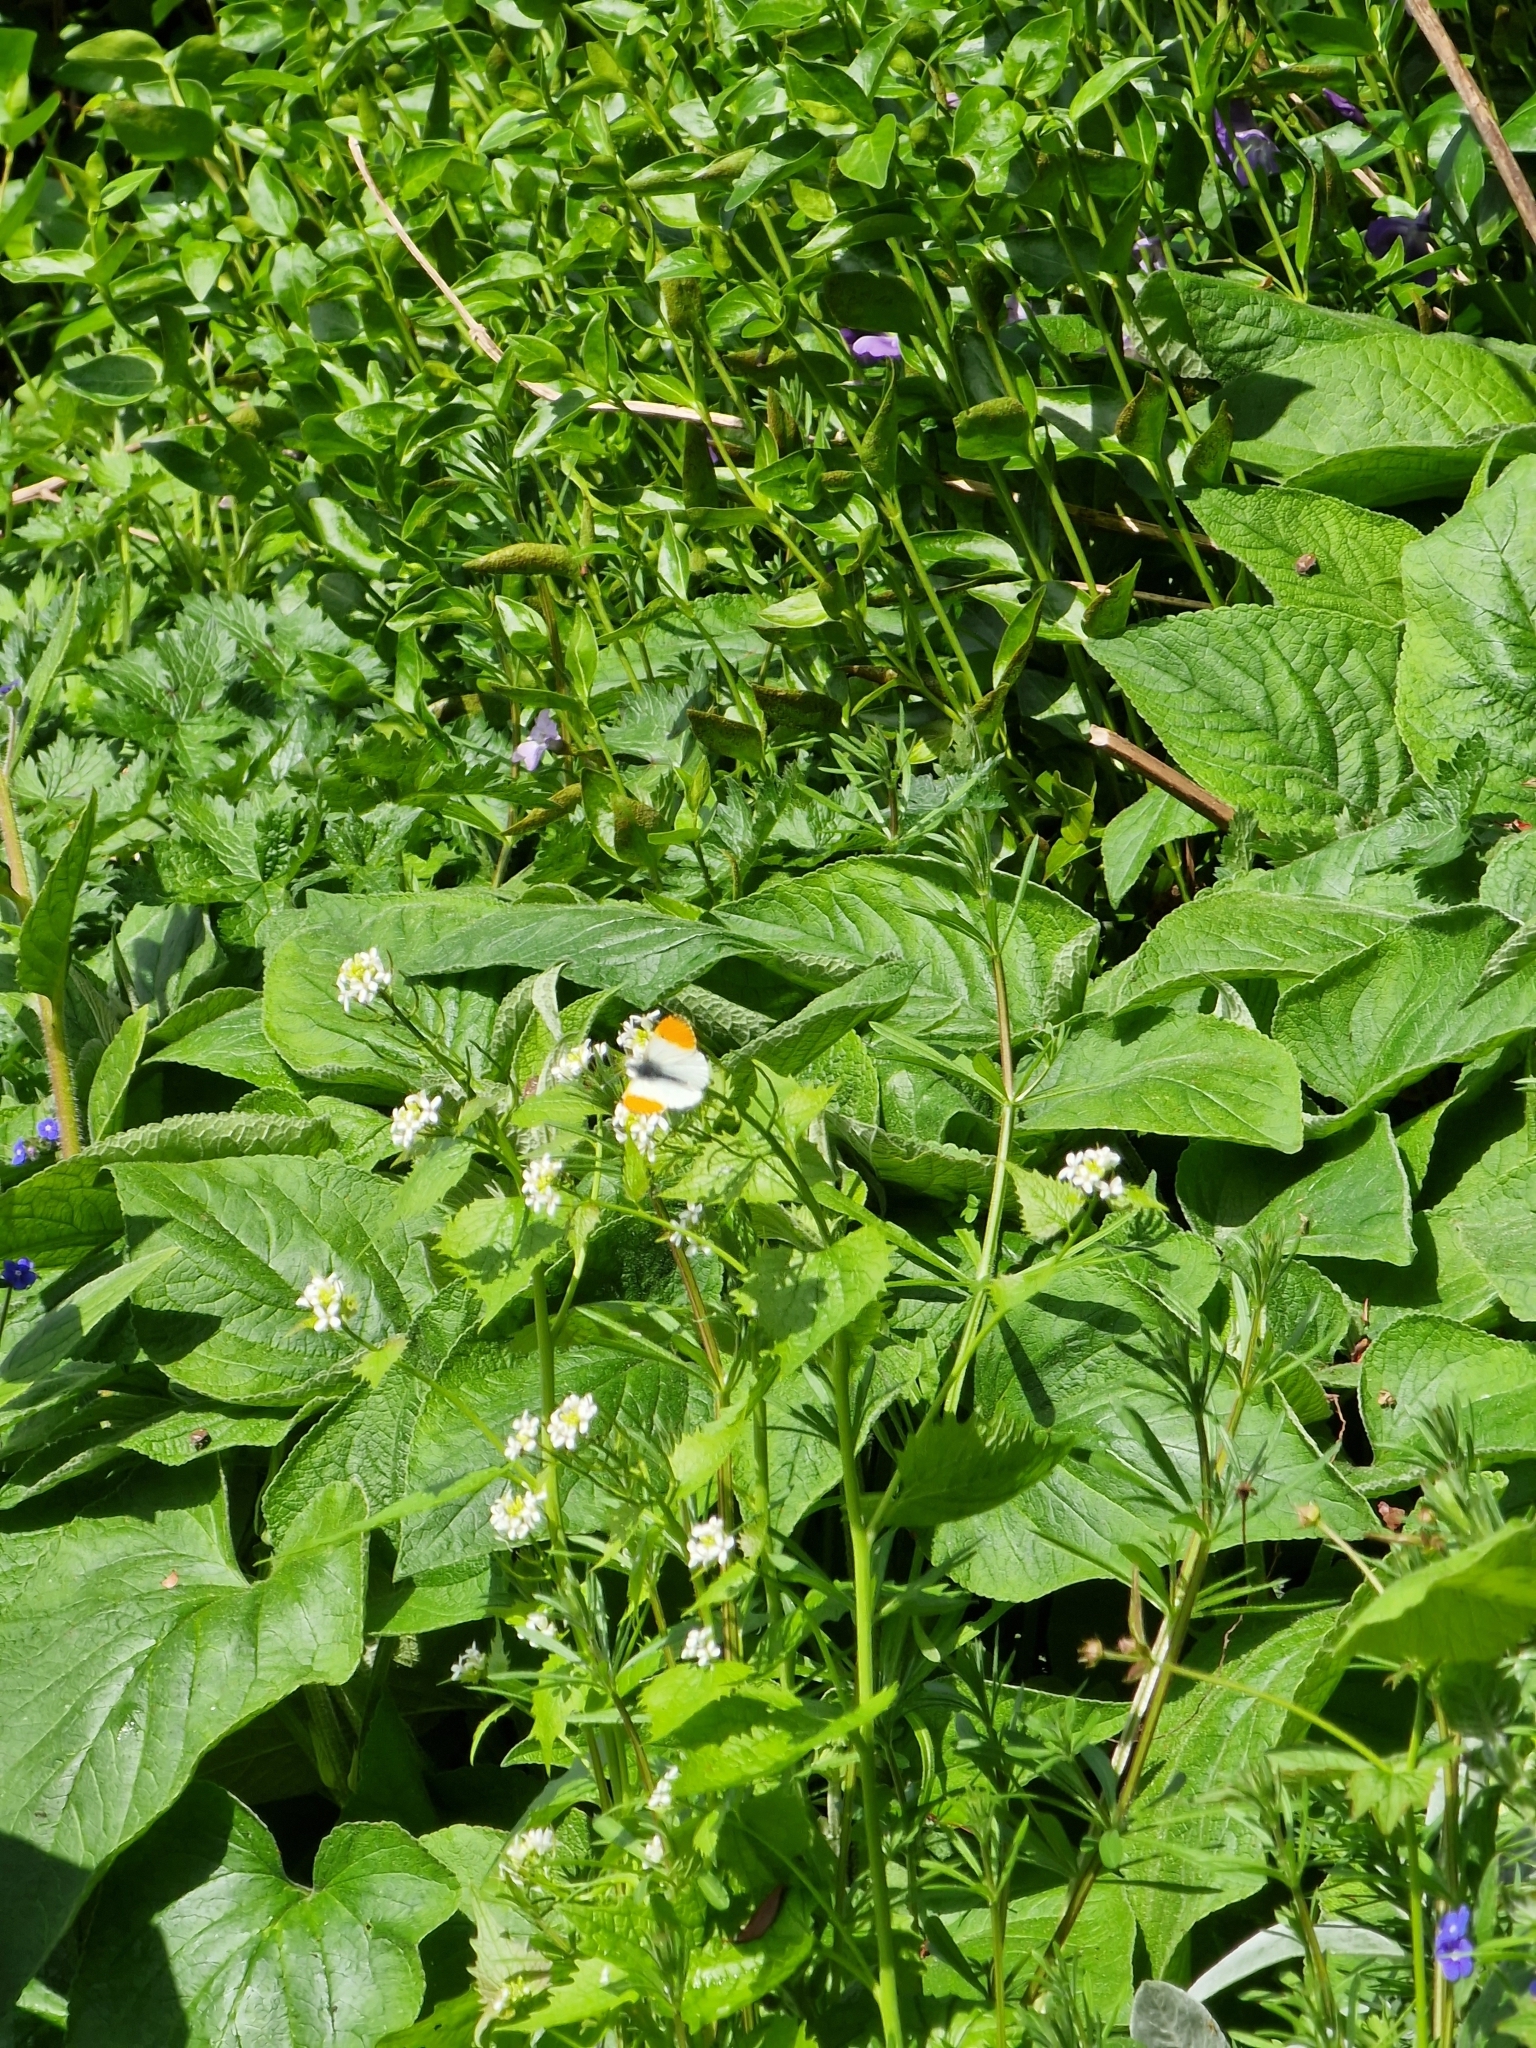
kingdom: Animalia
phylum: Arthropoda
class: Insecta
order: Lepidoptera
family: Pieridae
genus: Anthocharis
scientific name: Anthocharis cardamines
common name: Orange-tip
